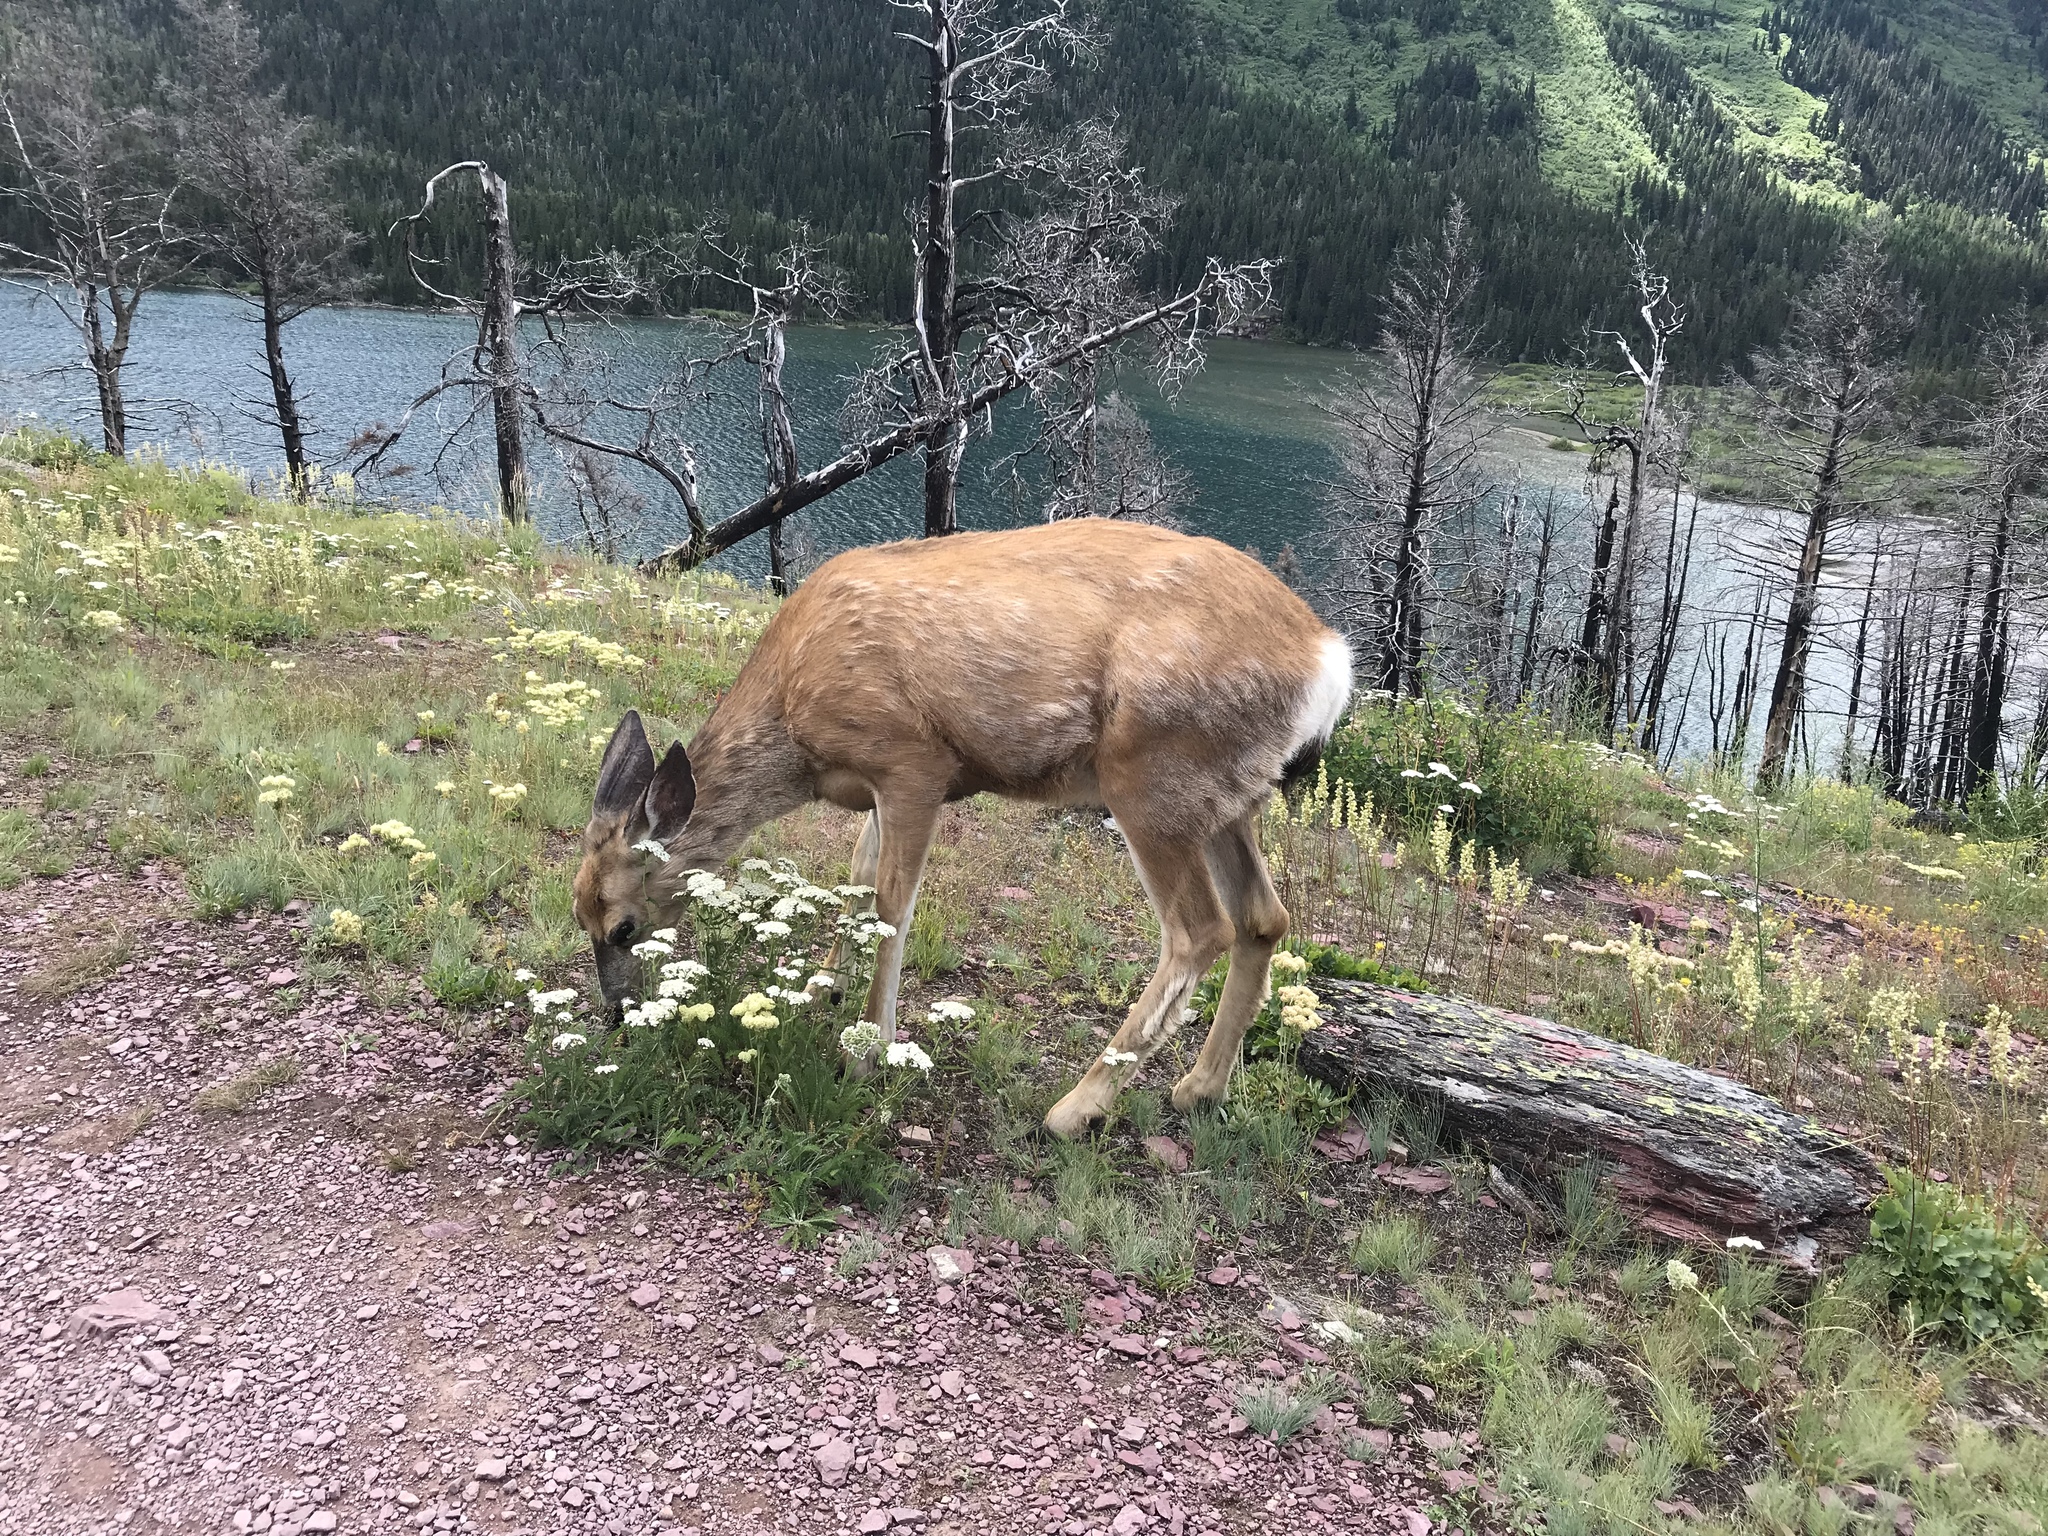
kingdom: Animalia
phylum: Chordata
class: Mammalia
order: Artiodactyla
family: Cervidae
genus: Odocoileus
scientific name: Odocoileus hemionus
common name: Mule deer
